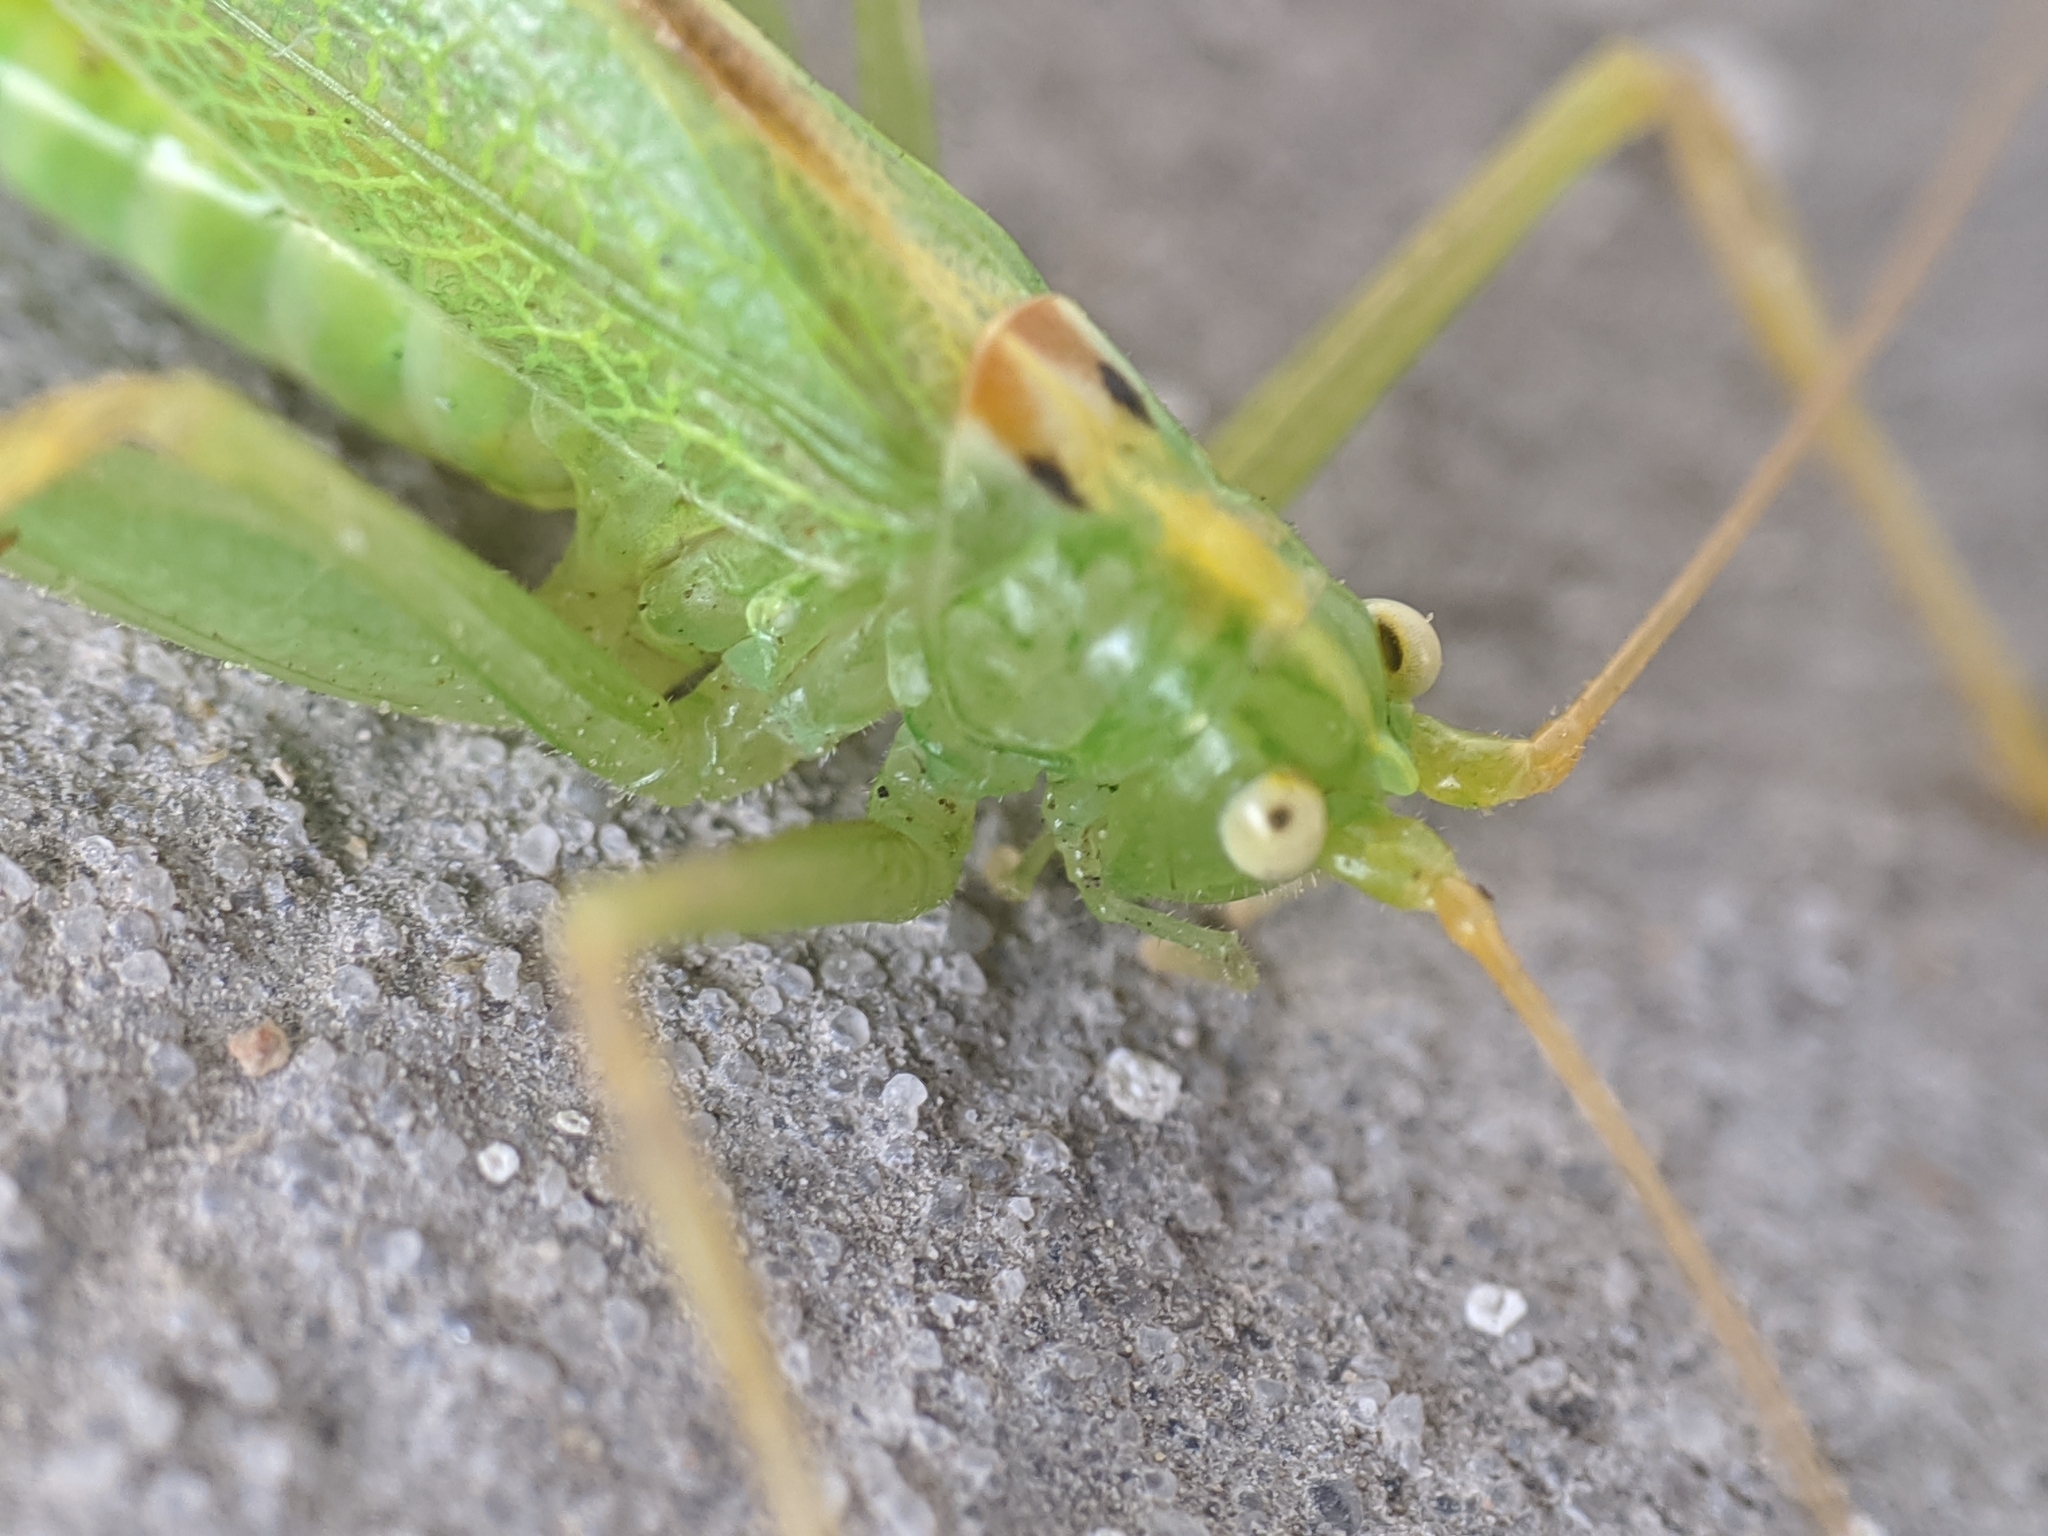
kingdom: Animalia
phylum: Arthropoda
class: Insecta
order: Orthoptera
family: Tettigoniidae
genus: Meconema
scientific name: Meconema thalassinum
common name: Oak bush-cricket
